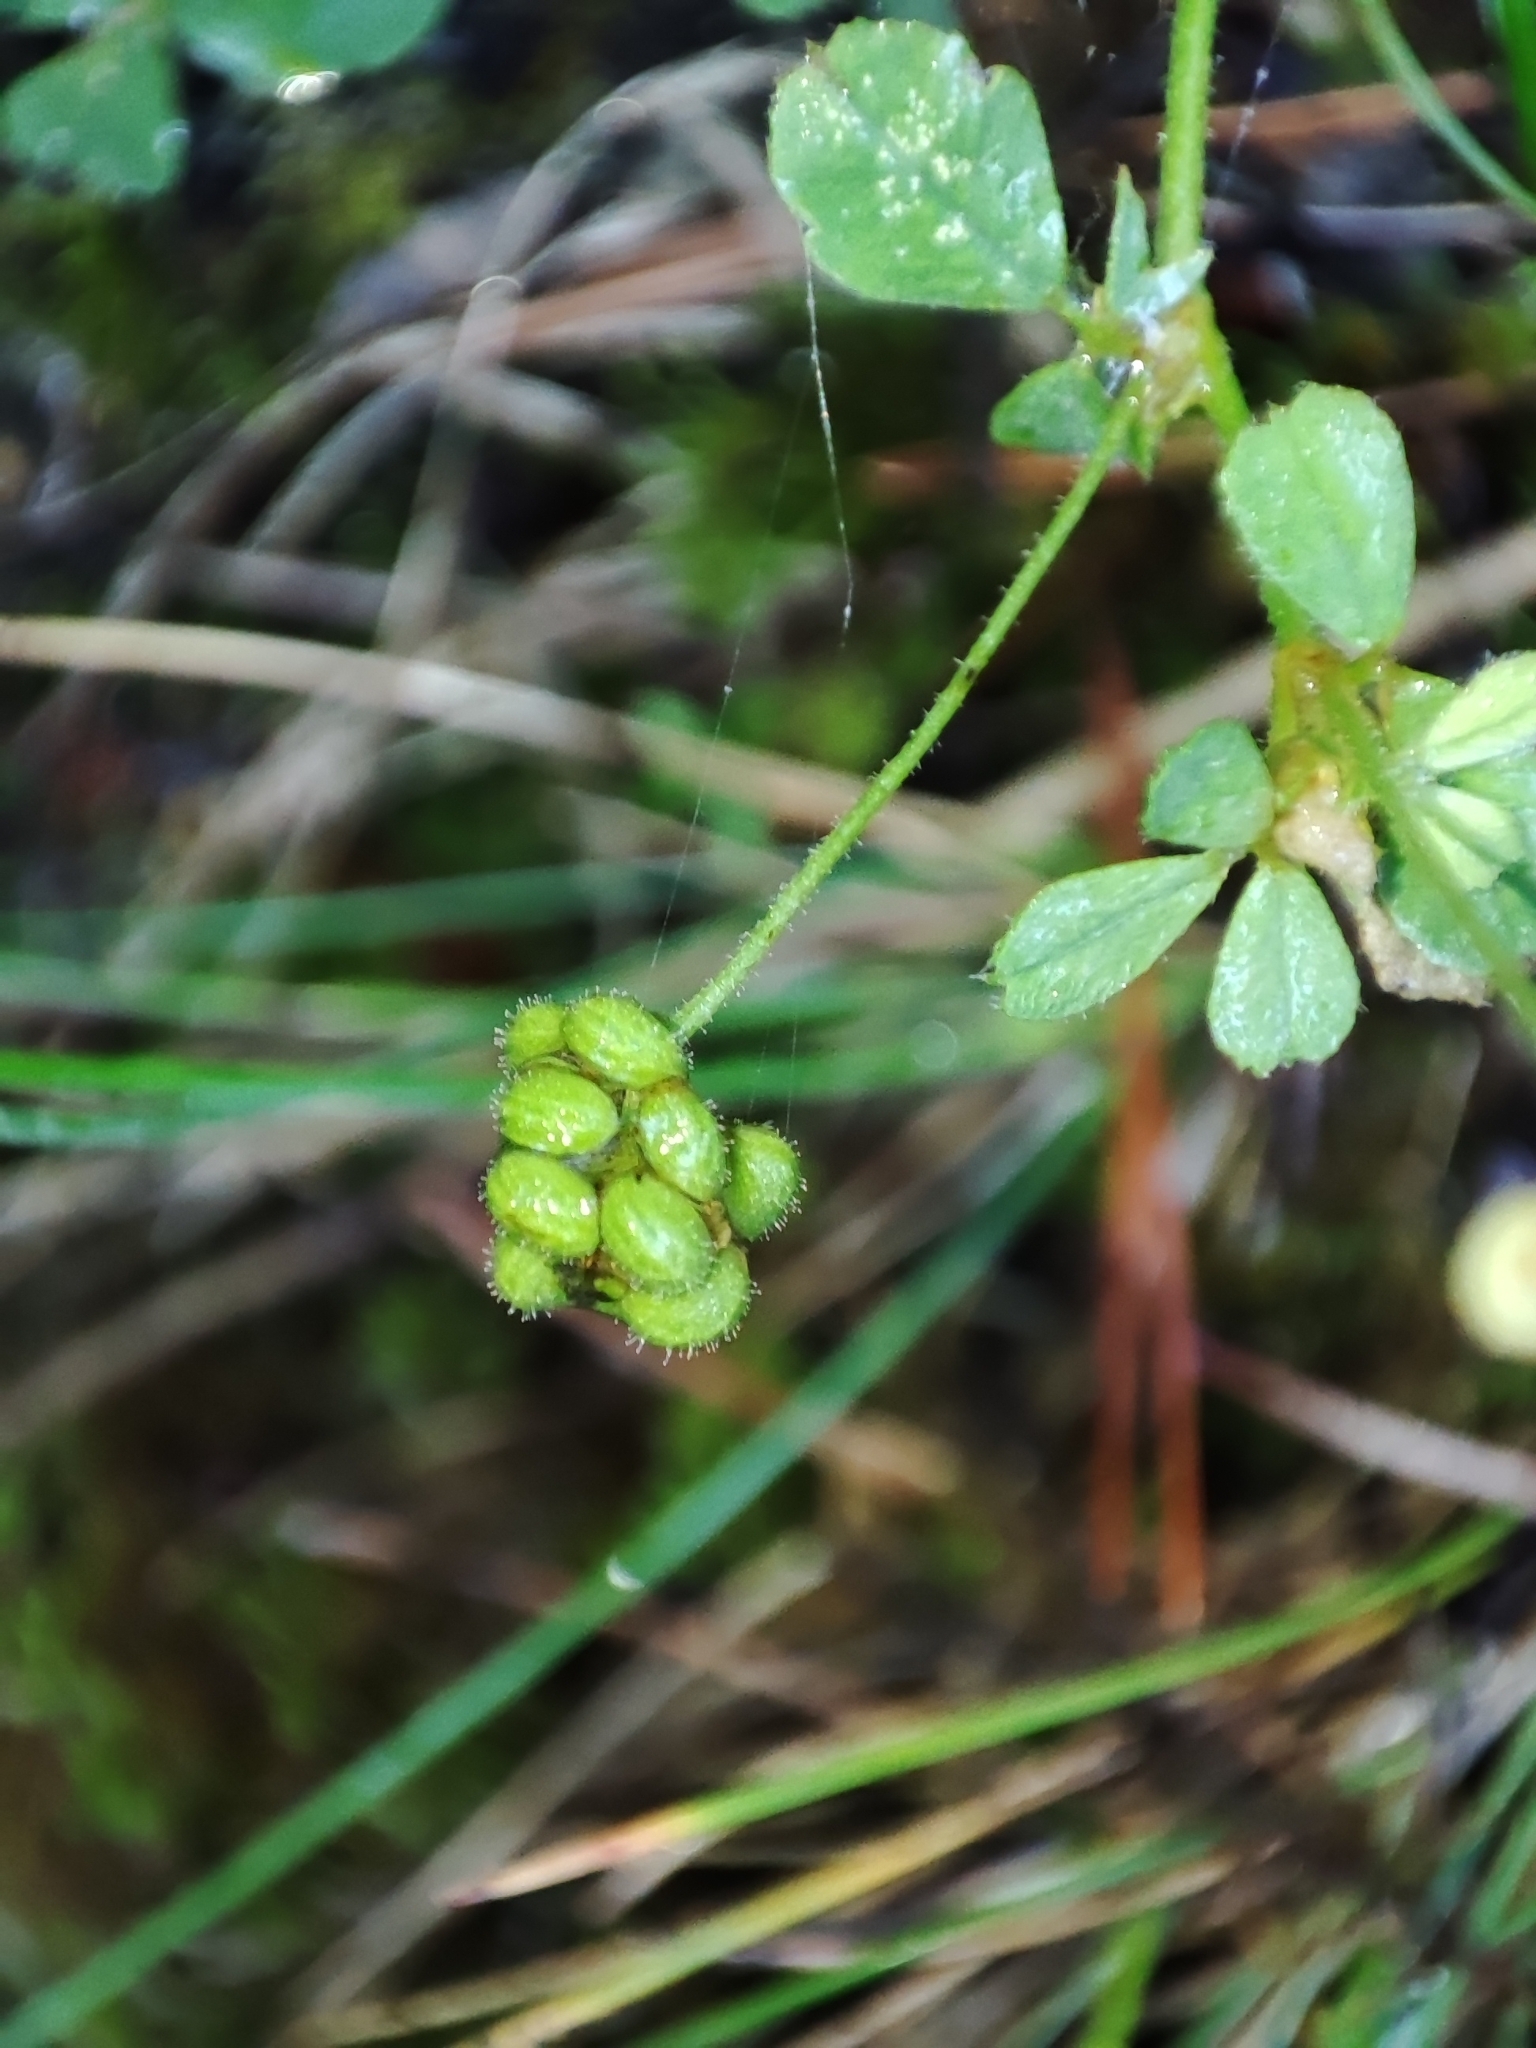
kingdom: Plantae
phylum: Tracheophyta
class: Magnoliopsida
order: Fabales
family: Fabaceae
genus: Medicago
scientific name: Medicago lupulina
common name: Black medick
